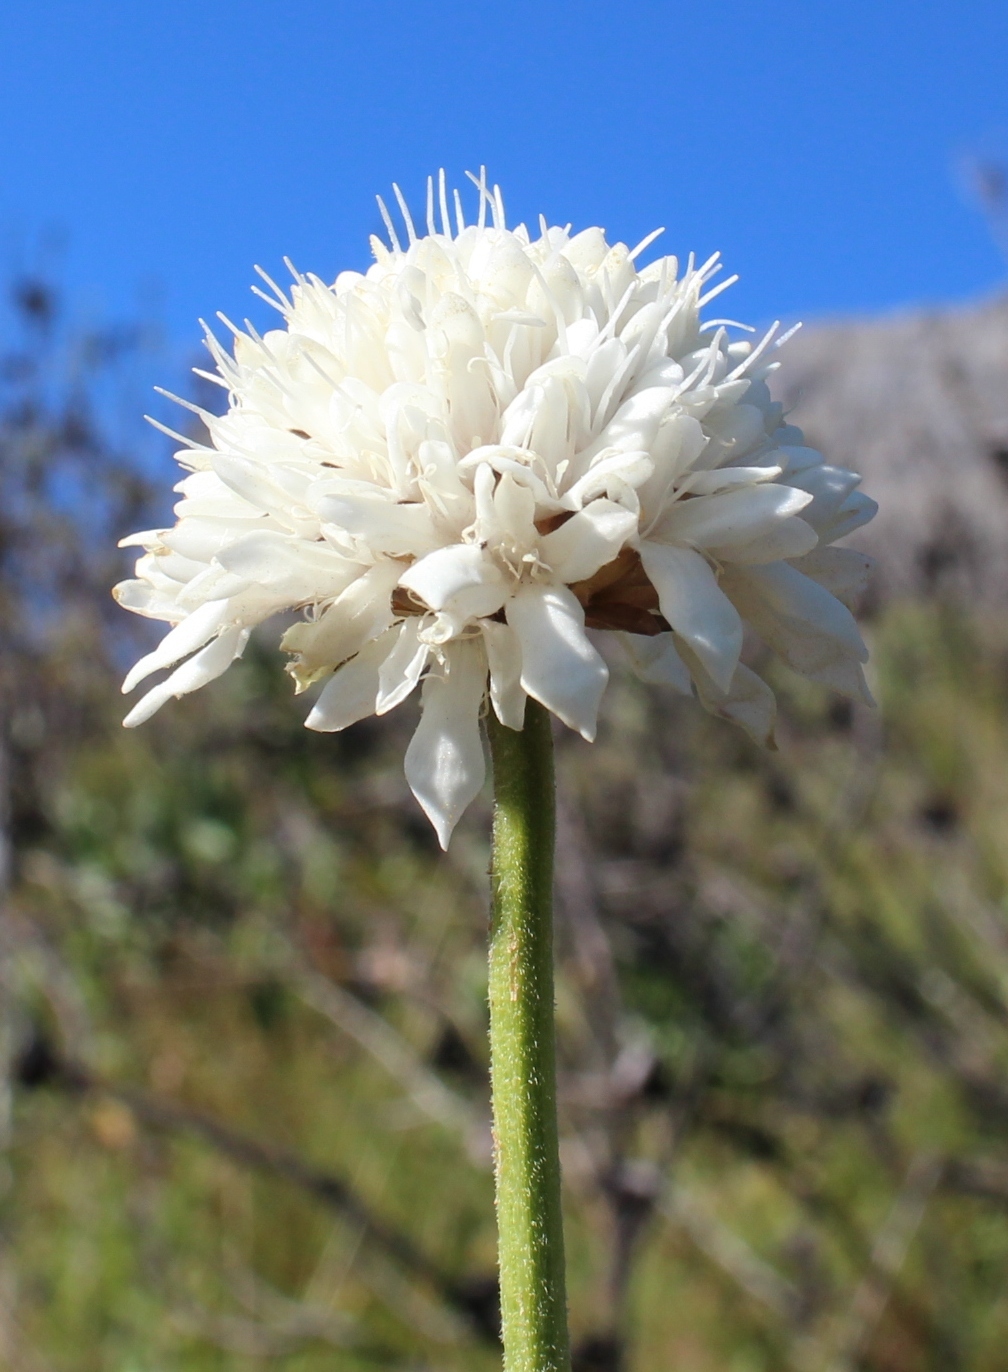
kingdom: Plantae
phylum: Tracheophyta
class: Magnoliopsida
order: Dipsacales
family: Caprifoliaceae
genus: Cephalaria
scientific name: Cephalaria rigida
